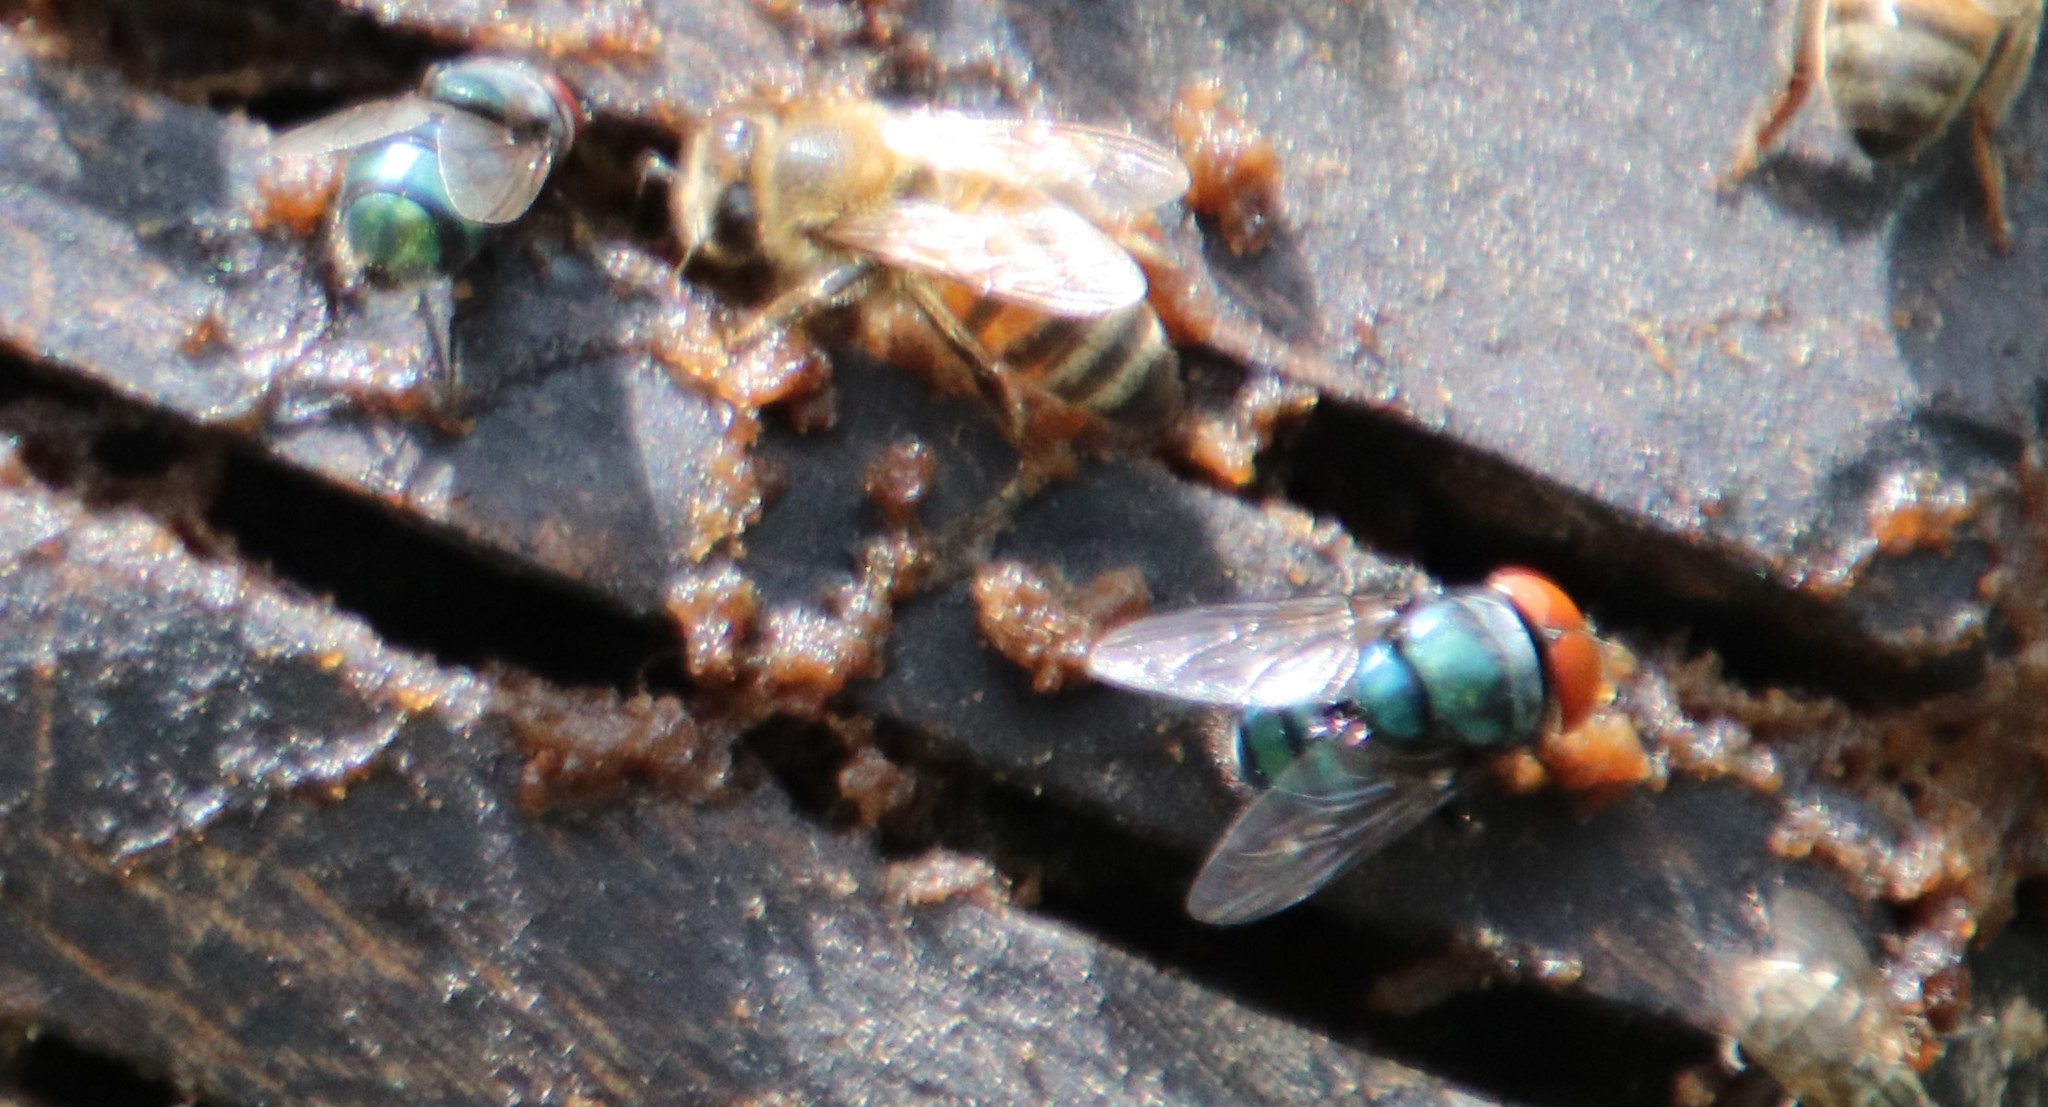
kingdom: Animalia
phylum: Arthropoda
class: Insecta
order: Diptera
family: Calliphoridae
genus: Chrysomya
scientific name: Chrysomya megacephala
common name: Blow fly
